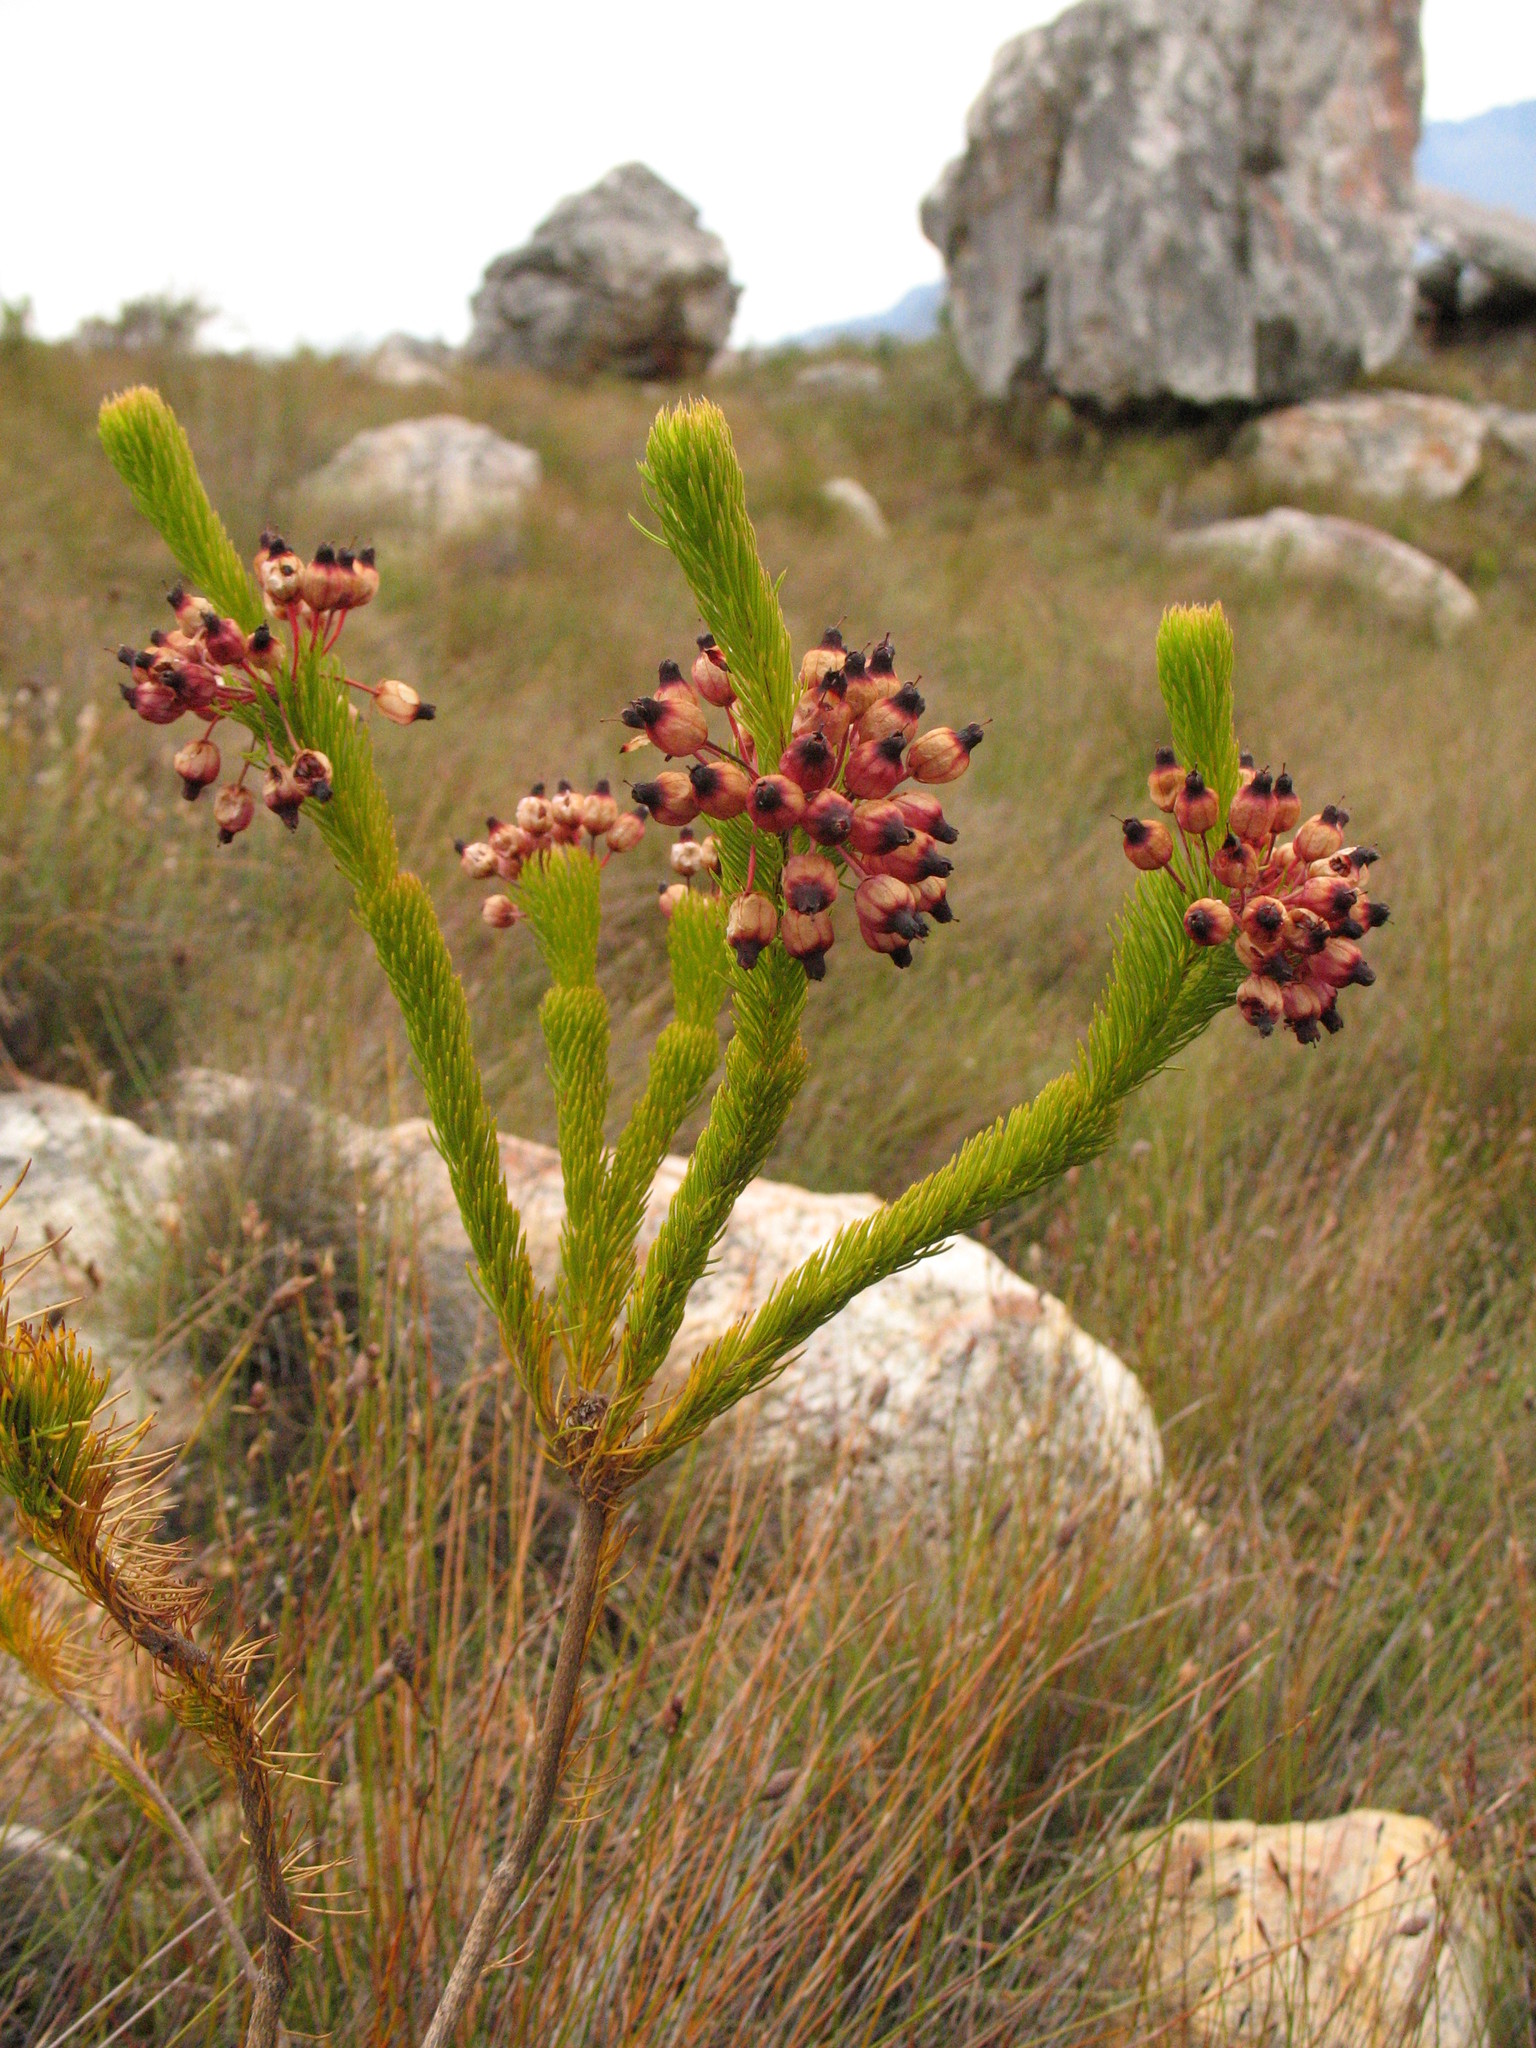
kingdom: Plantae
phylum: Tracheophyta
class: Magnoliopsida
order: Ericales
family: Ericaceae
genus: Erica
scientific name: Erica atrovinosa
